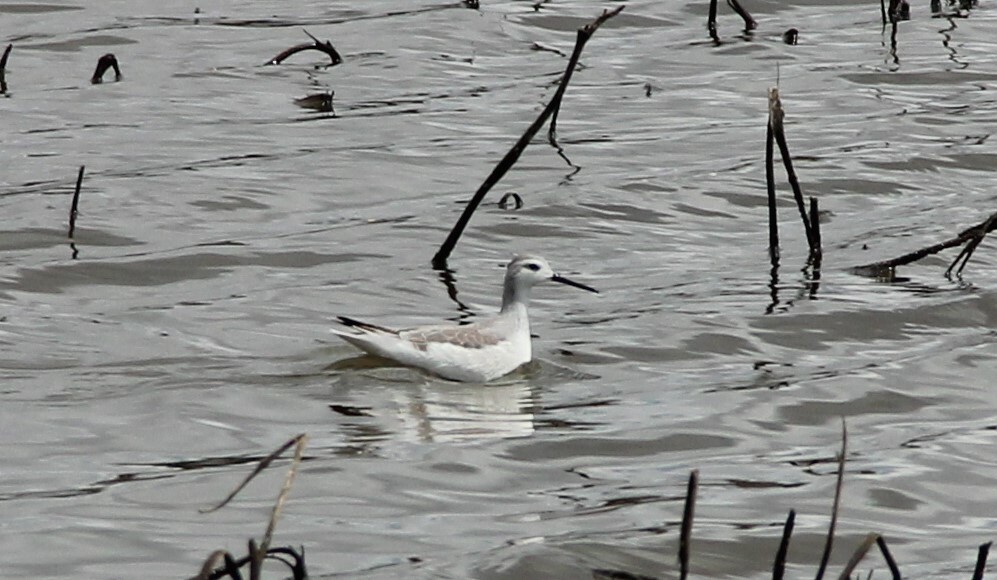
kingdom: Animalia
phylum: Chordata
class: Aves
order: Charadriiformes
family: Scolopacidae
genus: Phalaropus
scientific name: Phalaropus tricolor
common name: Wilson's phalarope
